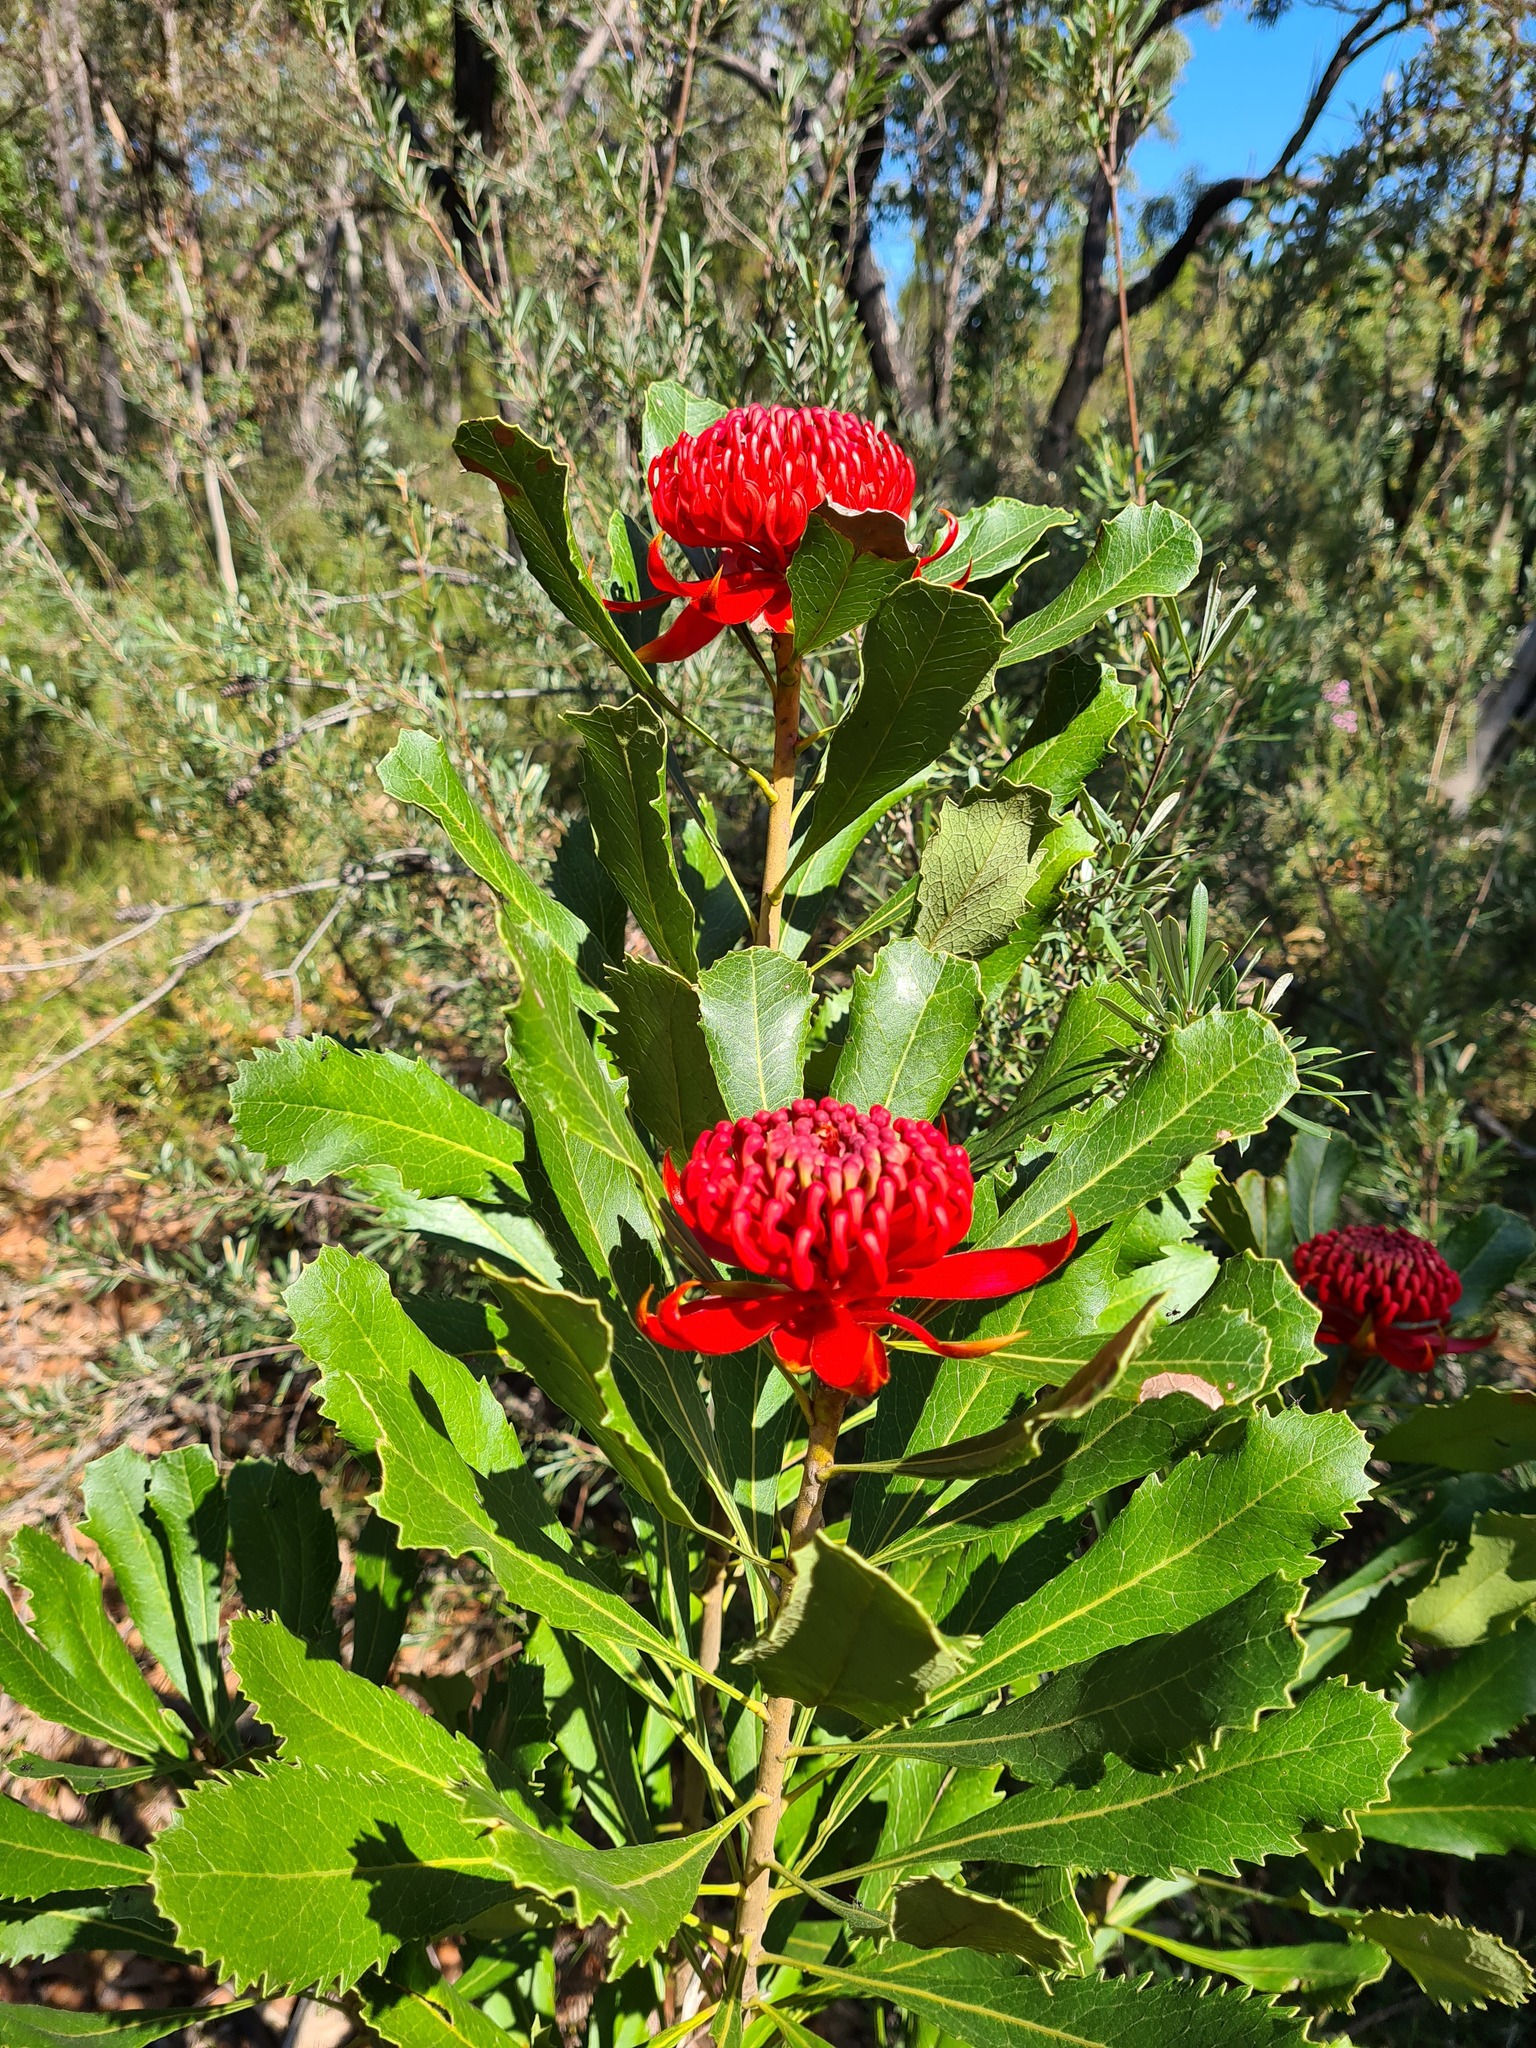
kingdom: Plantae
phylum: Tracheophyta
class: Magnoliopsida
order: Proteales
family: Proteaceae
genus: Telopea
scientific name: Telopea speciosissima
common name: New south wales waratah
